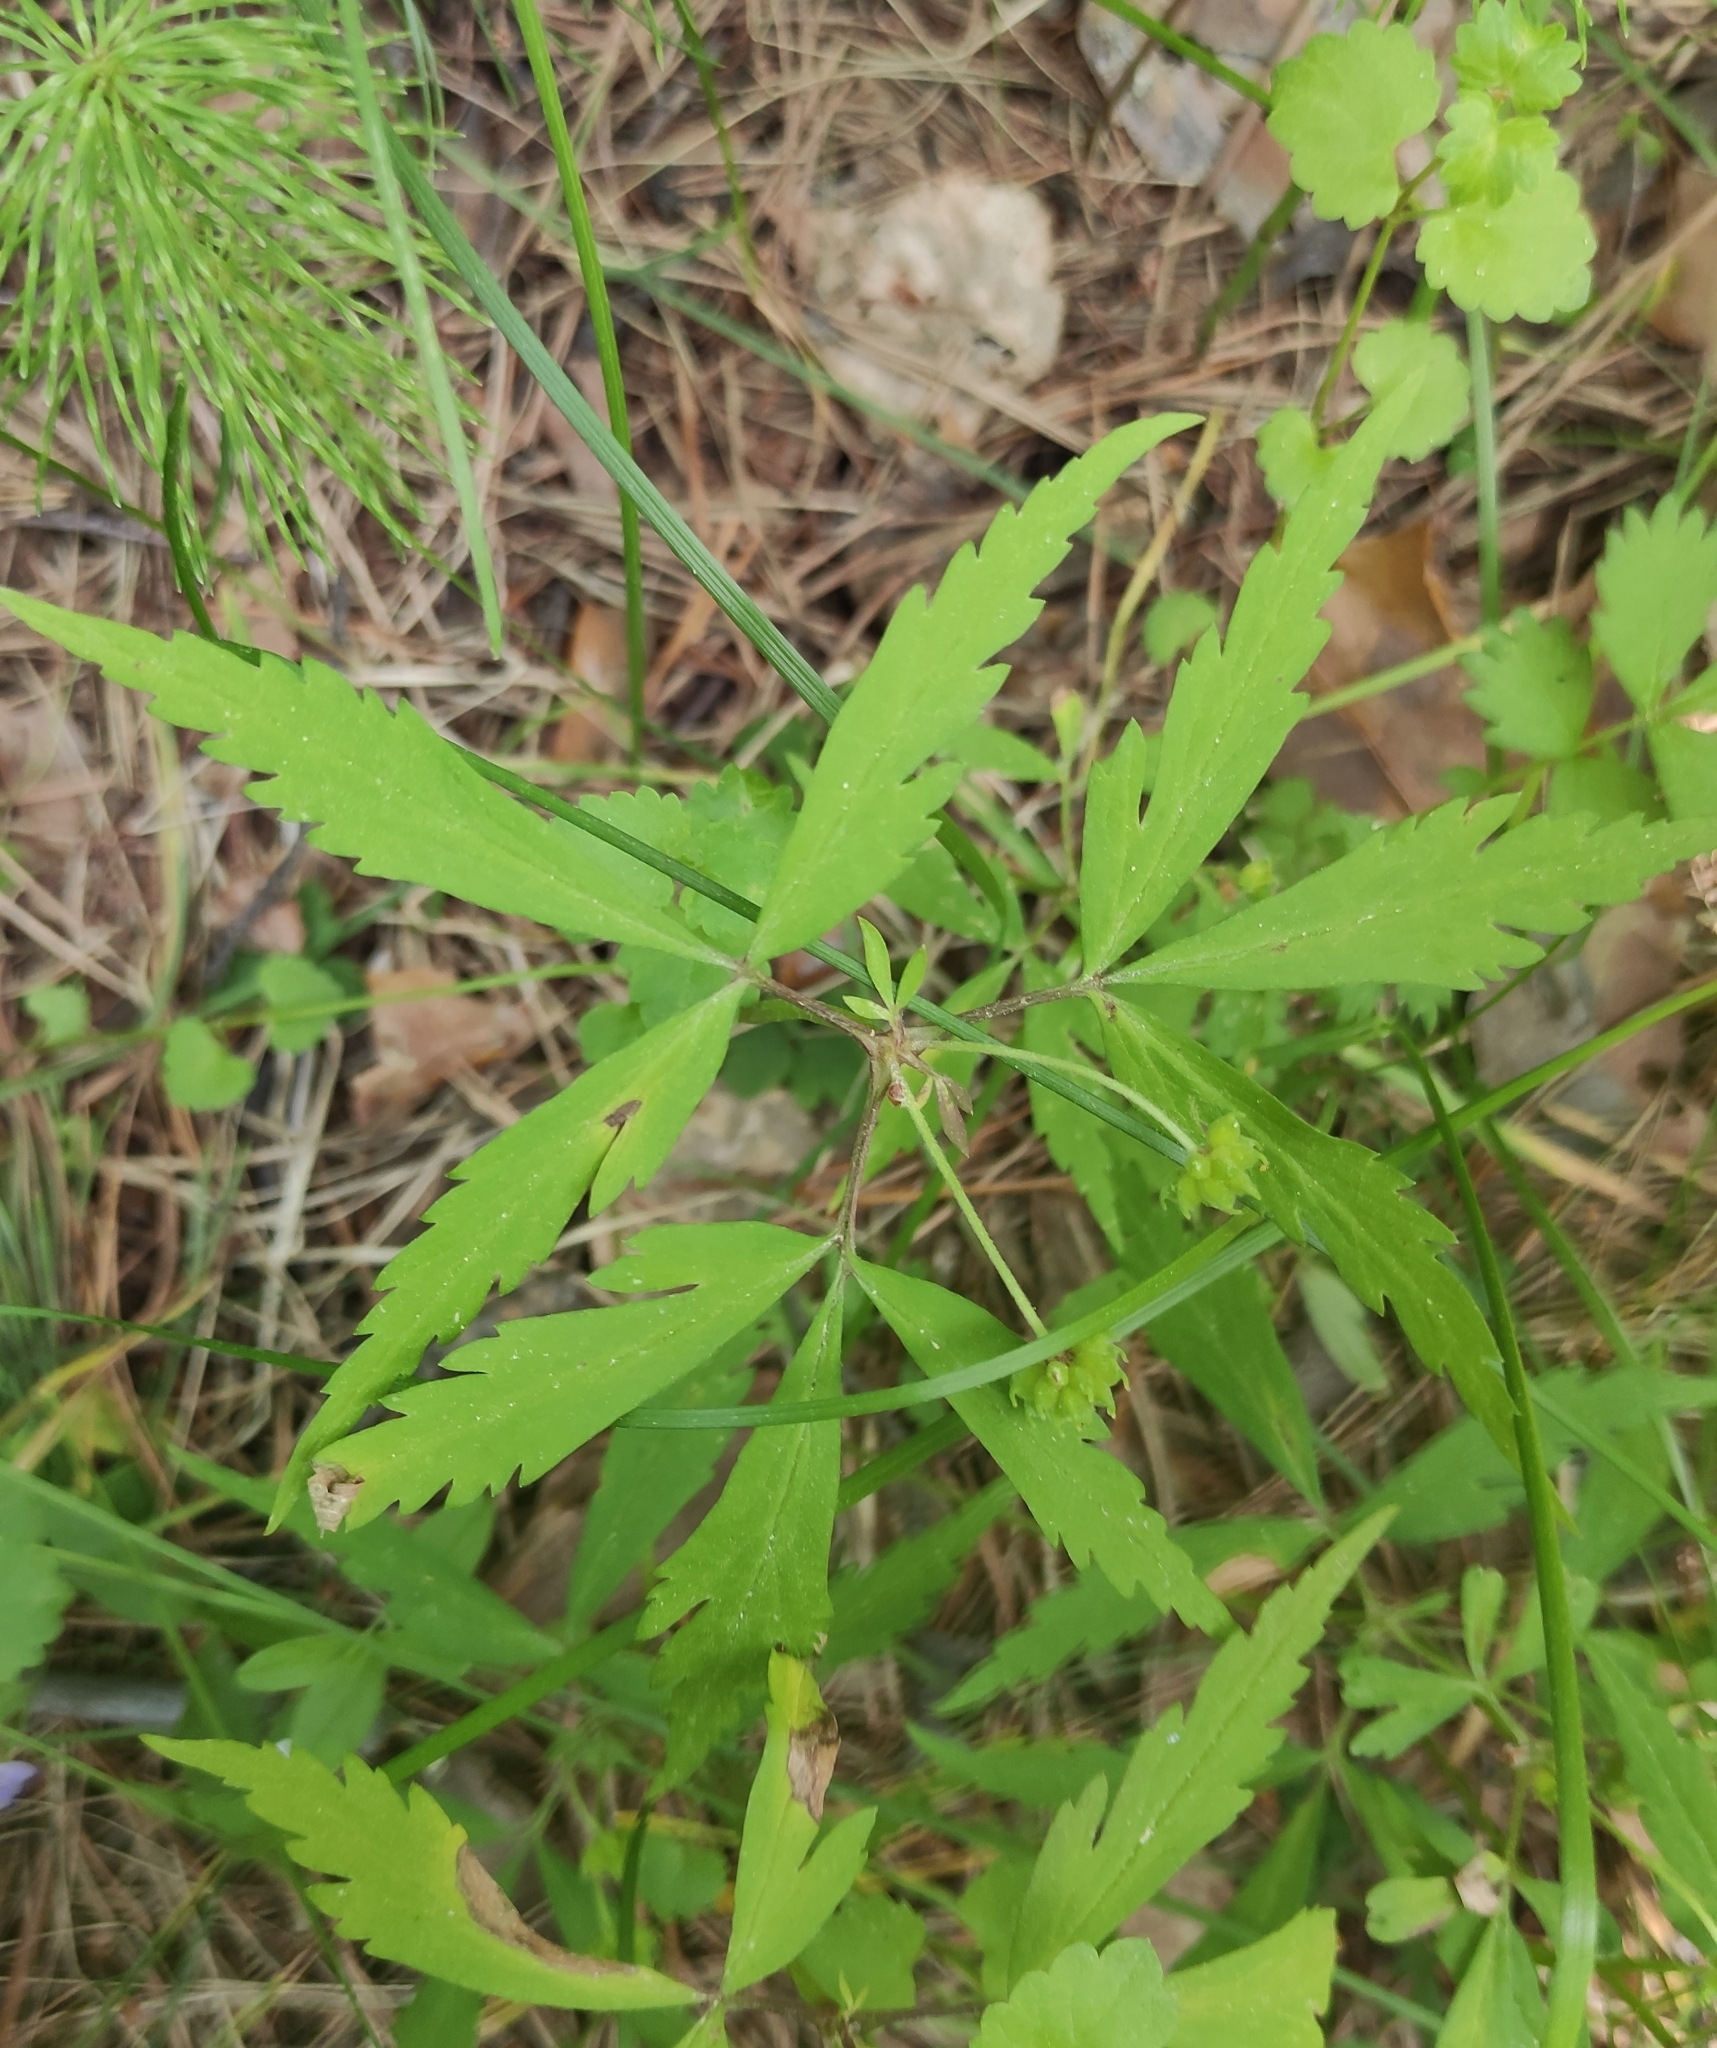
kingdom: Plantae
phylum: Tracheophyta
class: Magnoliopsida
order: Ranunculales
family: Ranunculaceae
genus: Anemone
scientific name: Anemone reflexa
